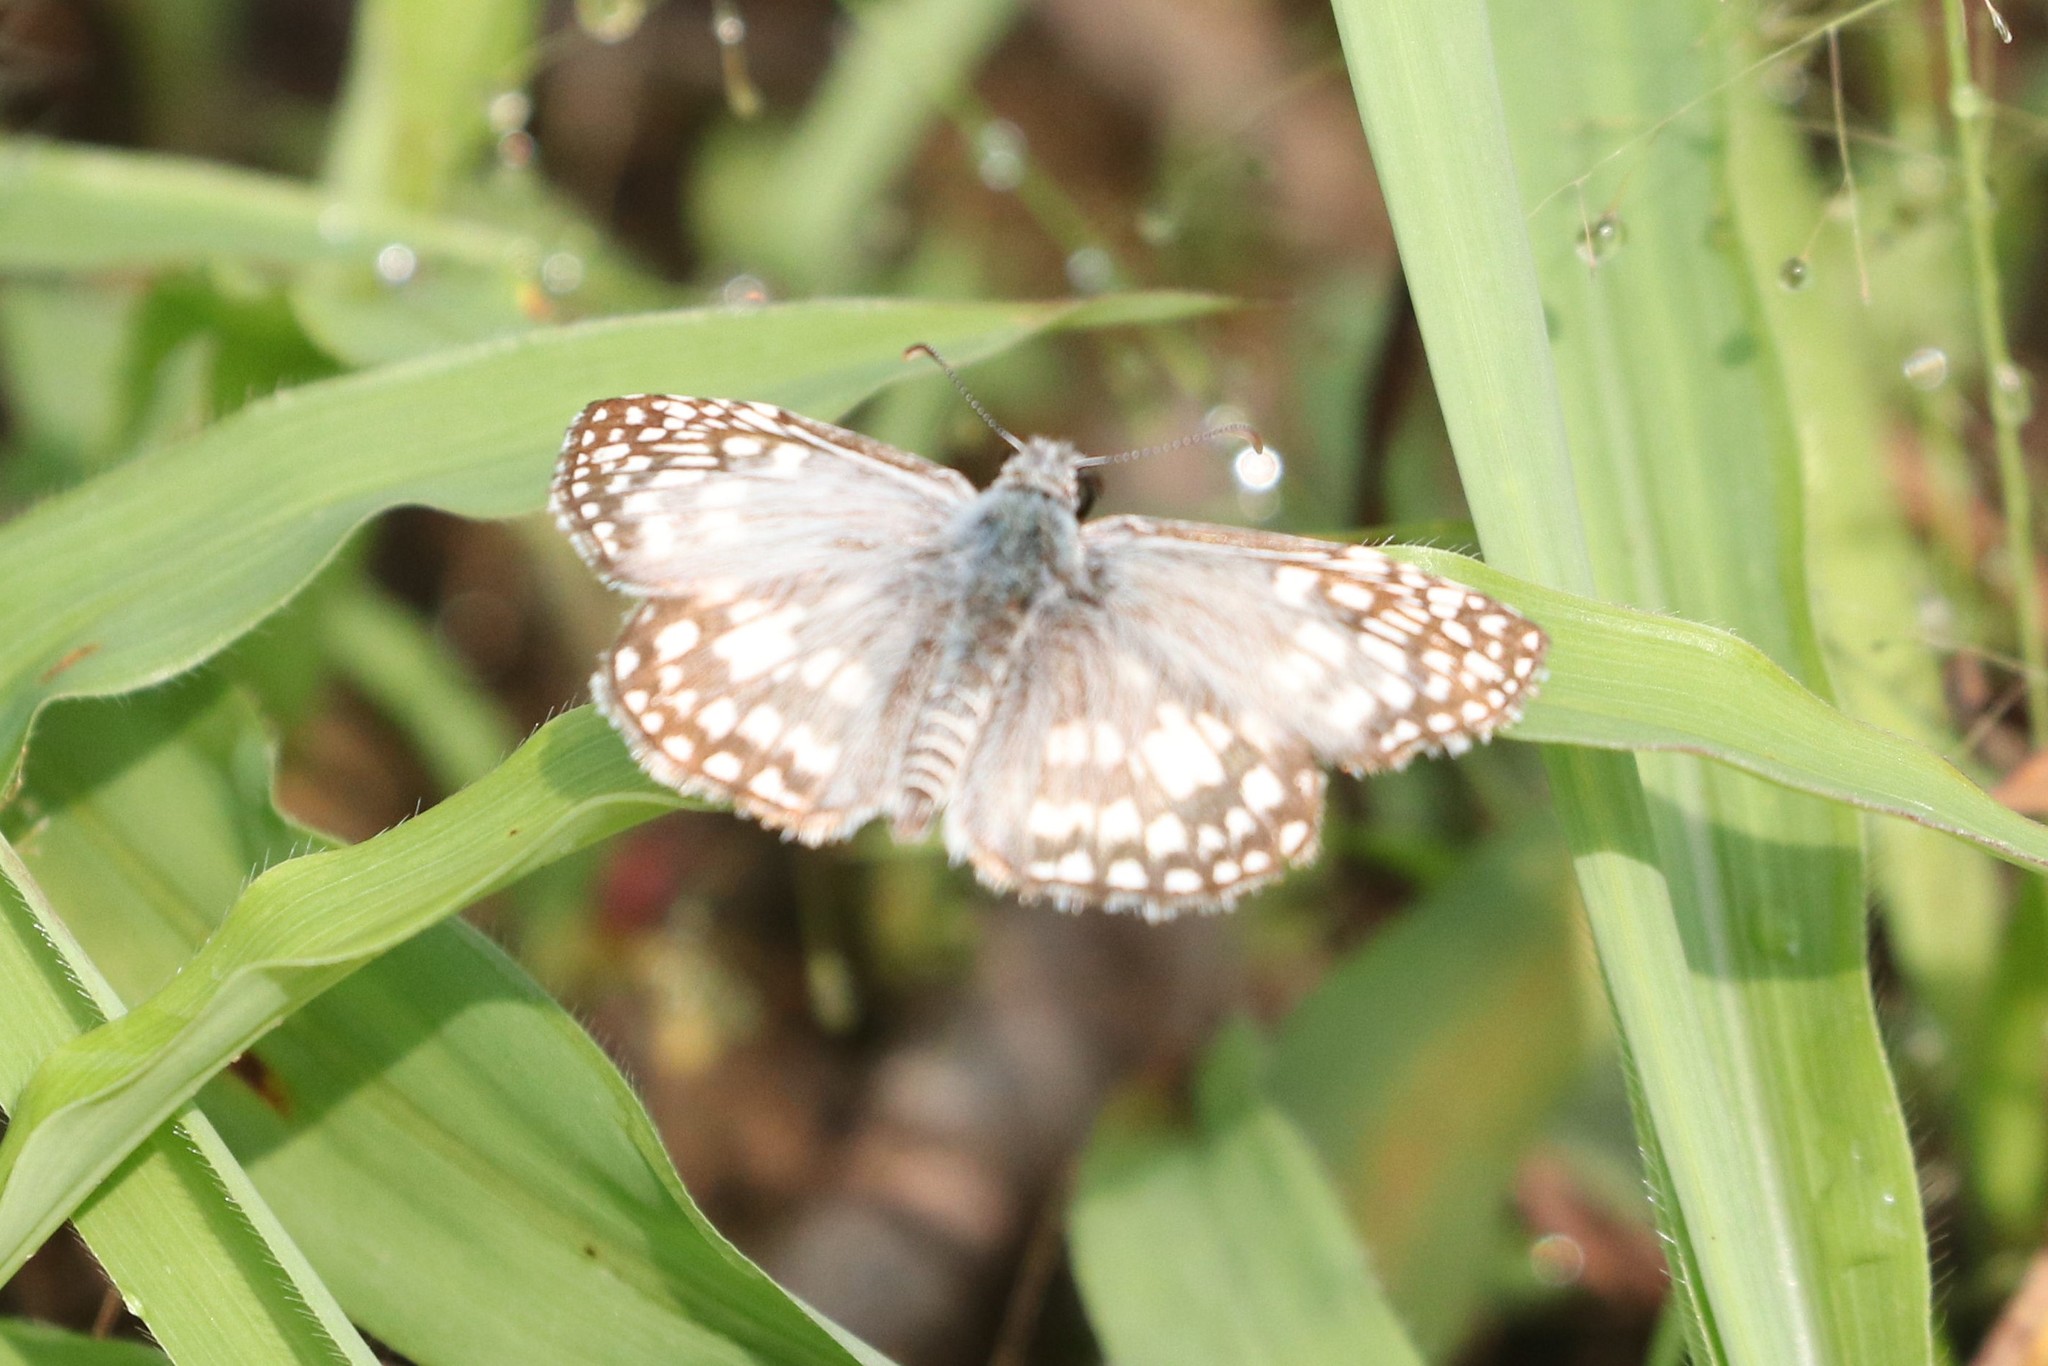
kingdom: Animalia
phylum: Arthropoda
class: Insecta
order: Lepidoptera
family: Hesperiidae
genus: Pyrgus
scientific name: Pyrgus oileus
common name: Tropical checkered-skipper
